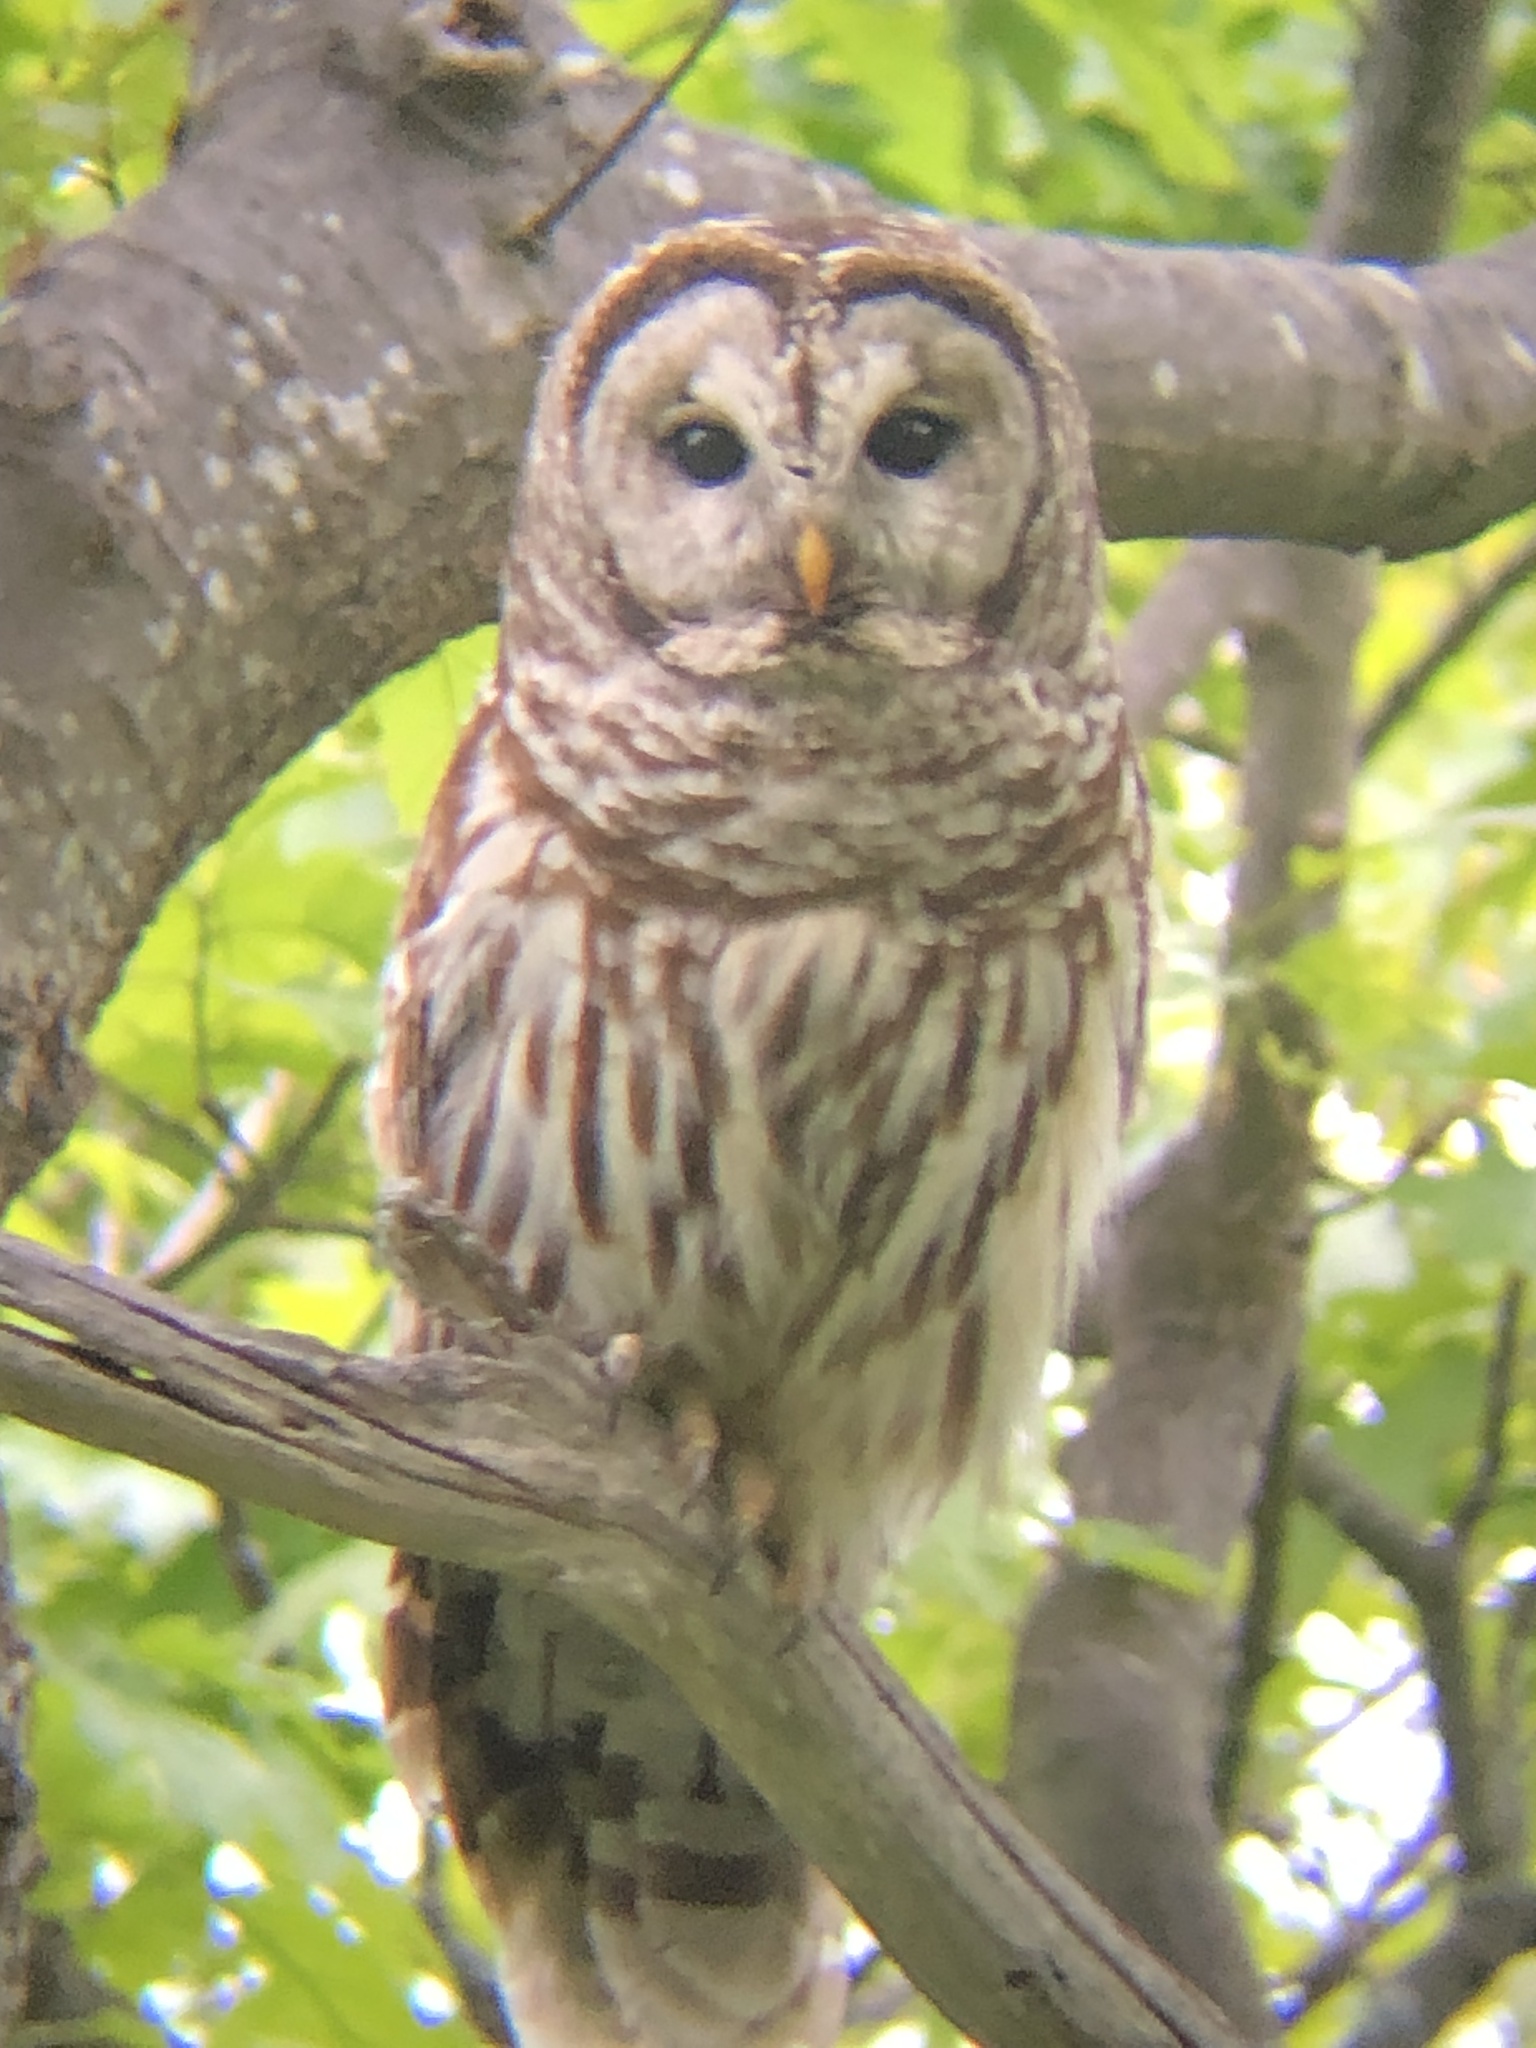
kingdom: Animalia
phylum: Chordata
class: Aves
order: Strigiformes
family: Strigidae
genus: Strix
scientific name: Strix varia
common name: Barred owl
